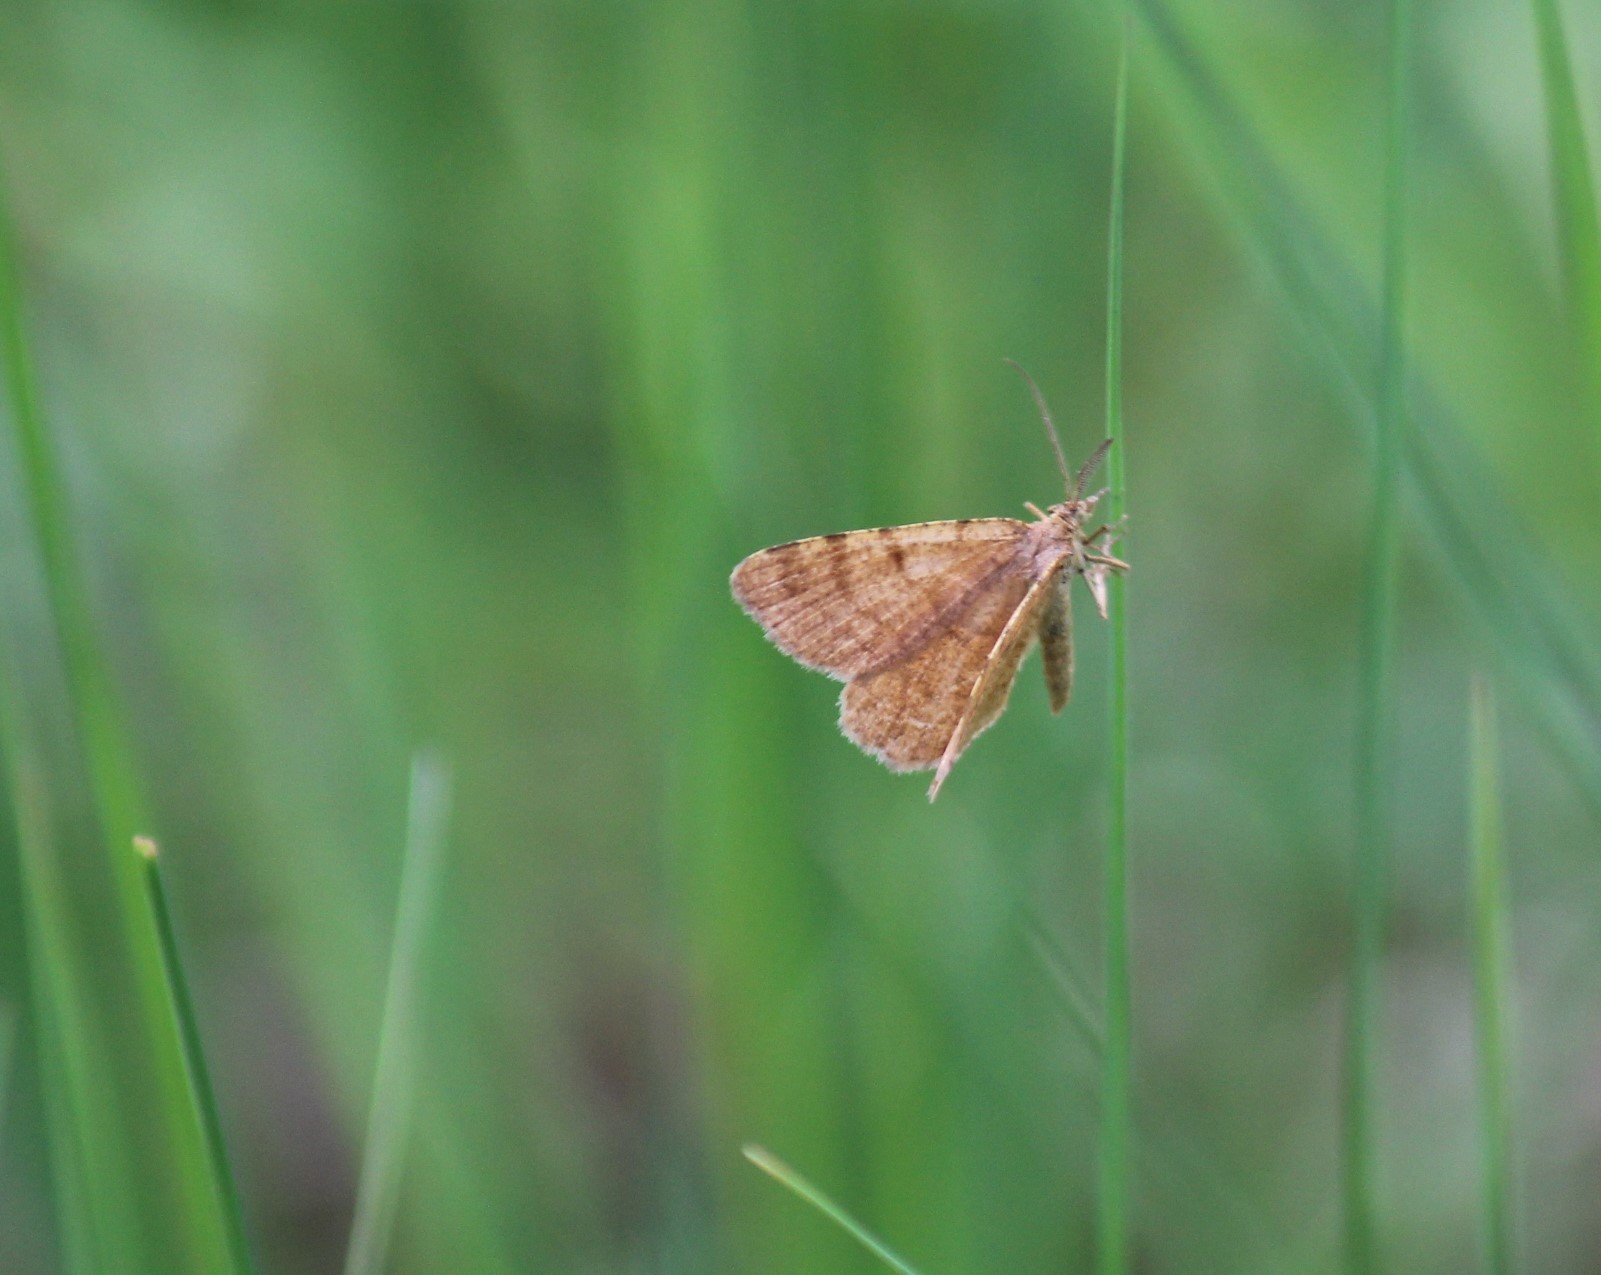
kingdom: Animalia
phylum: Arthropoda
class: Insecta
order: Lepidoptera
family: Geometridae
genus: Macaria
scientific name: Macaria brunneata
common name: Rannoch looper
